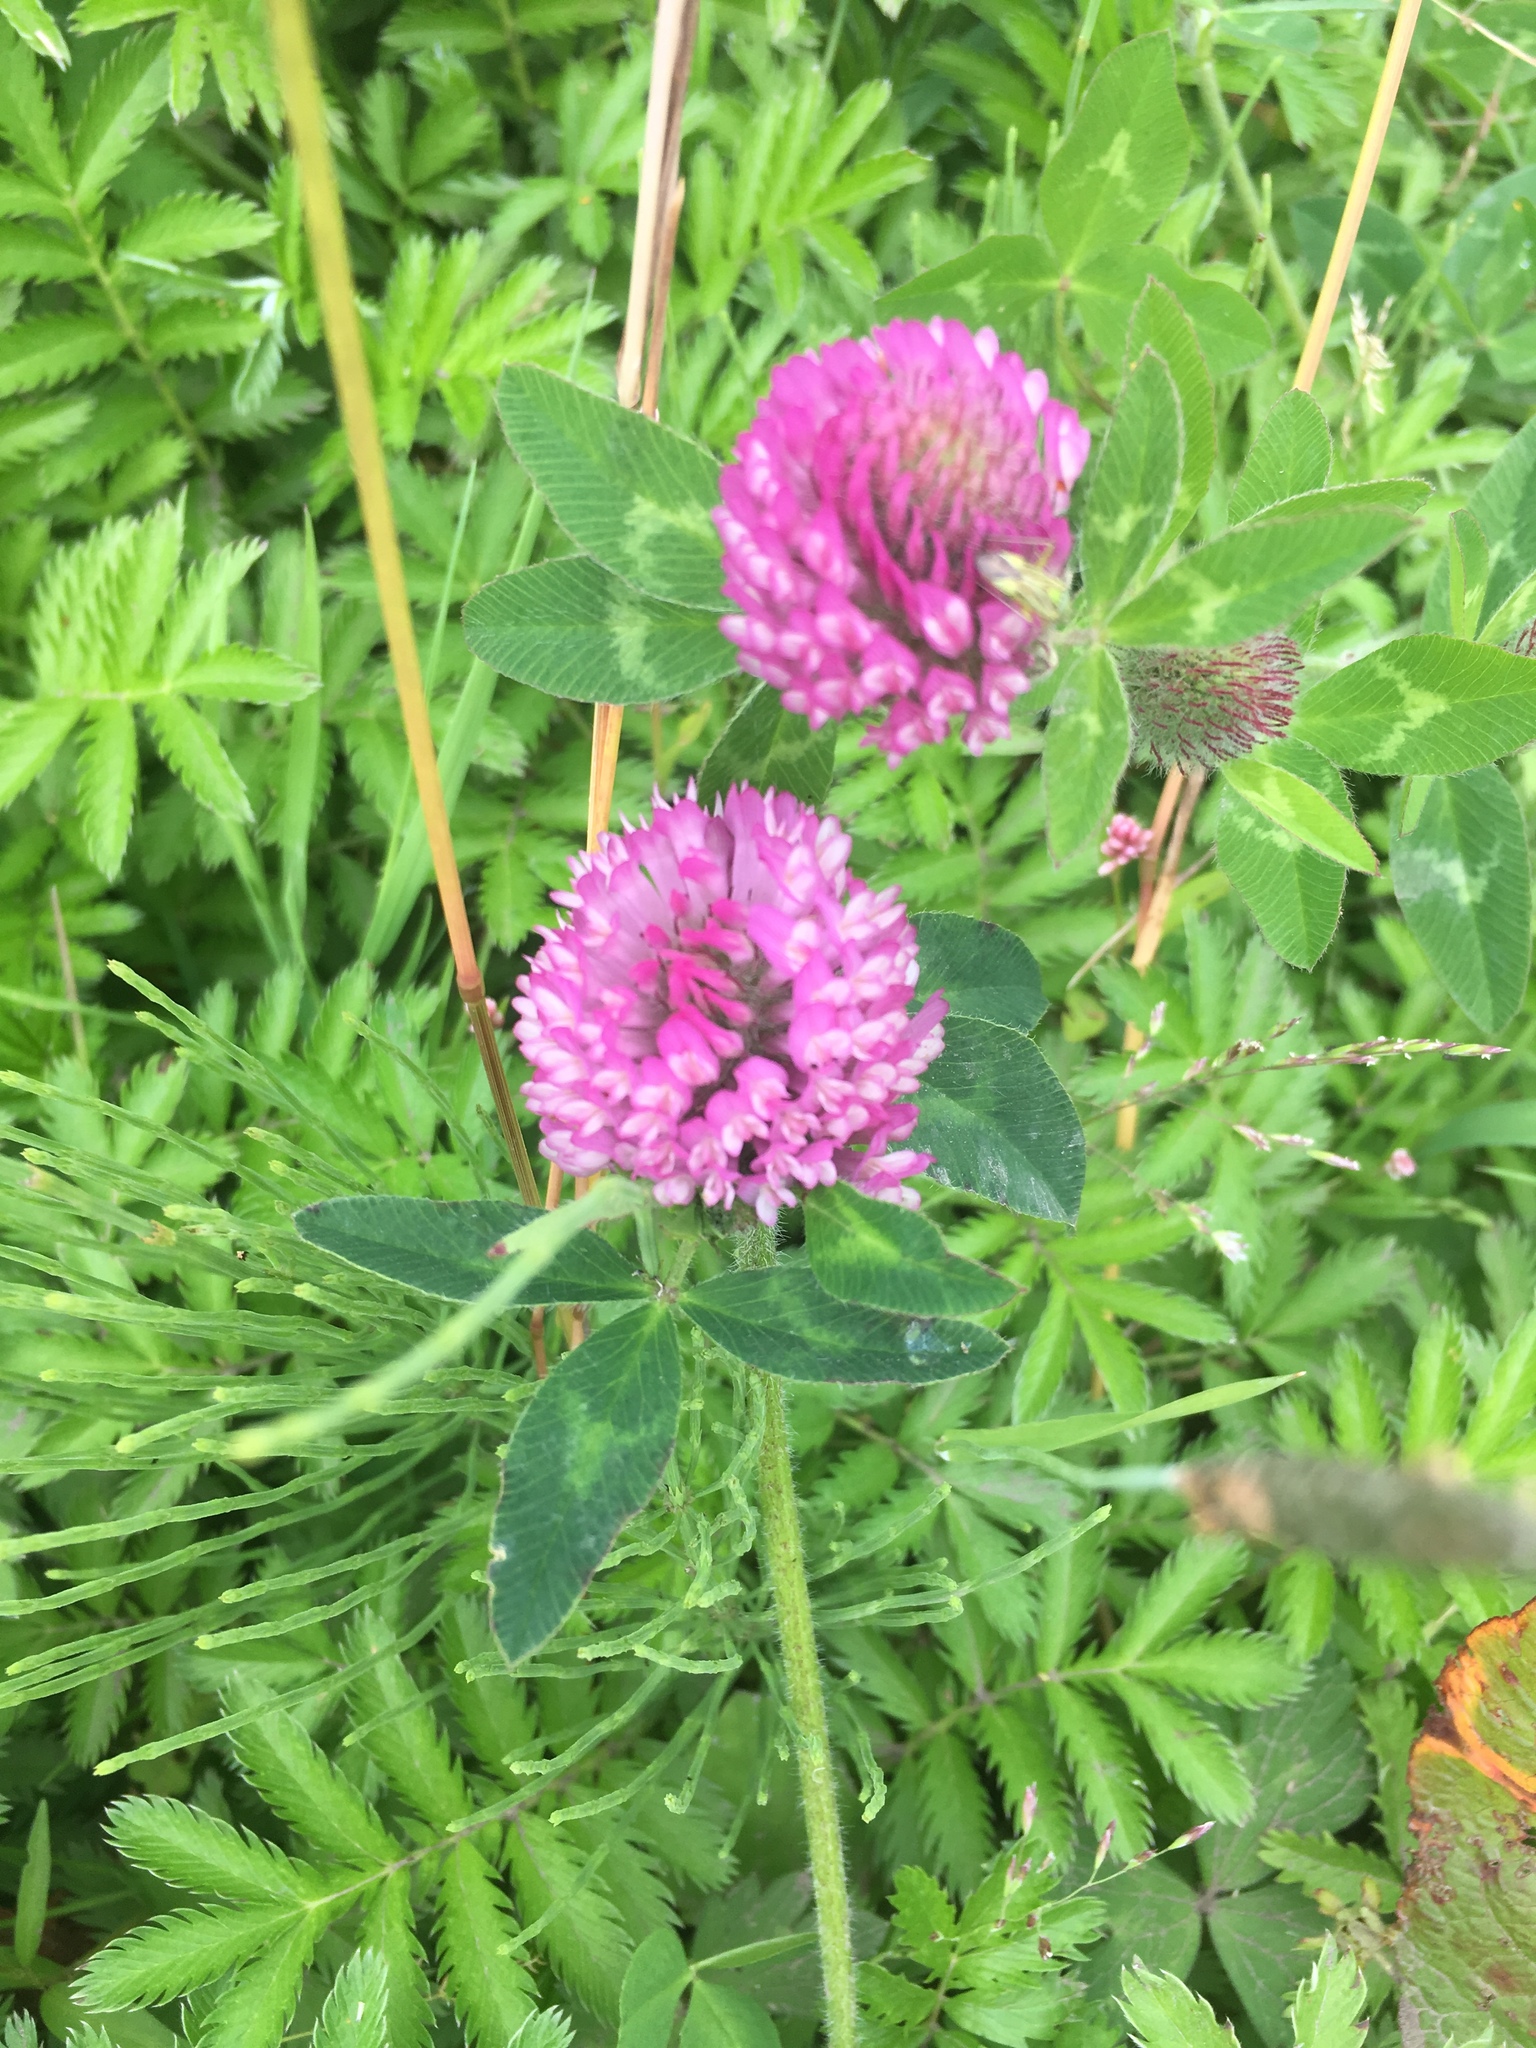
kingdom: Plantae
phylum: Tracheophyta
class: Magnoliopsida
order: Fabales
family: Fabaceae
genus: Trifolium
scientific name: Trifolium pratense
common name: Red clover
